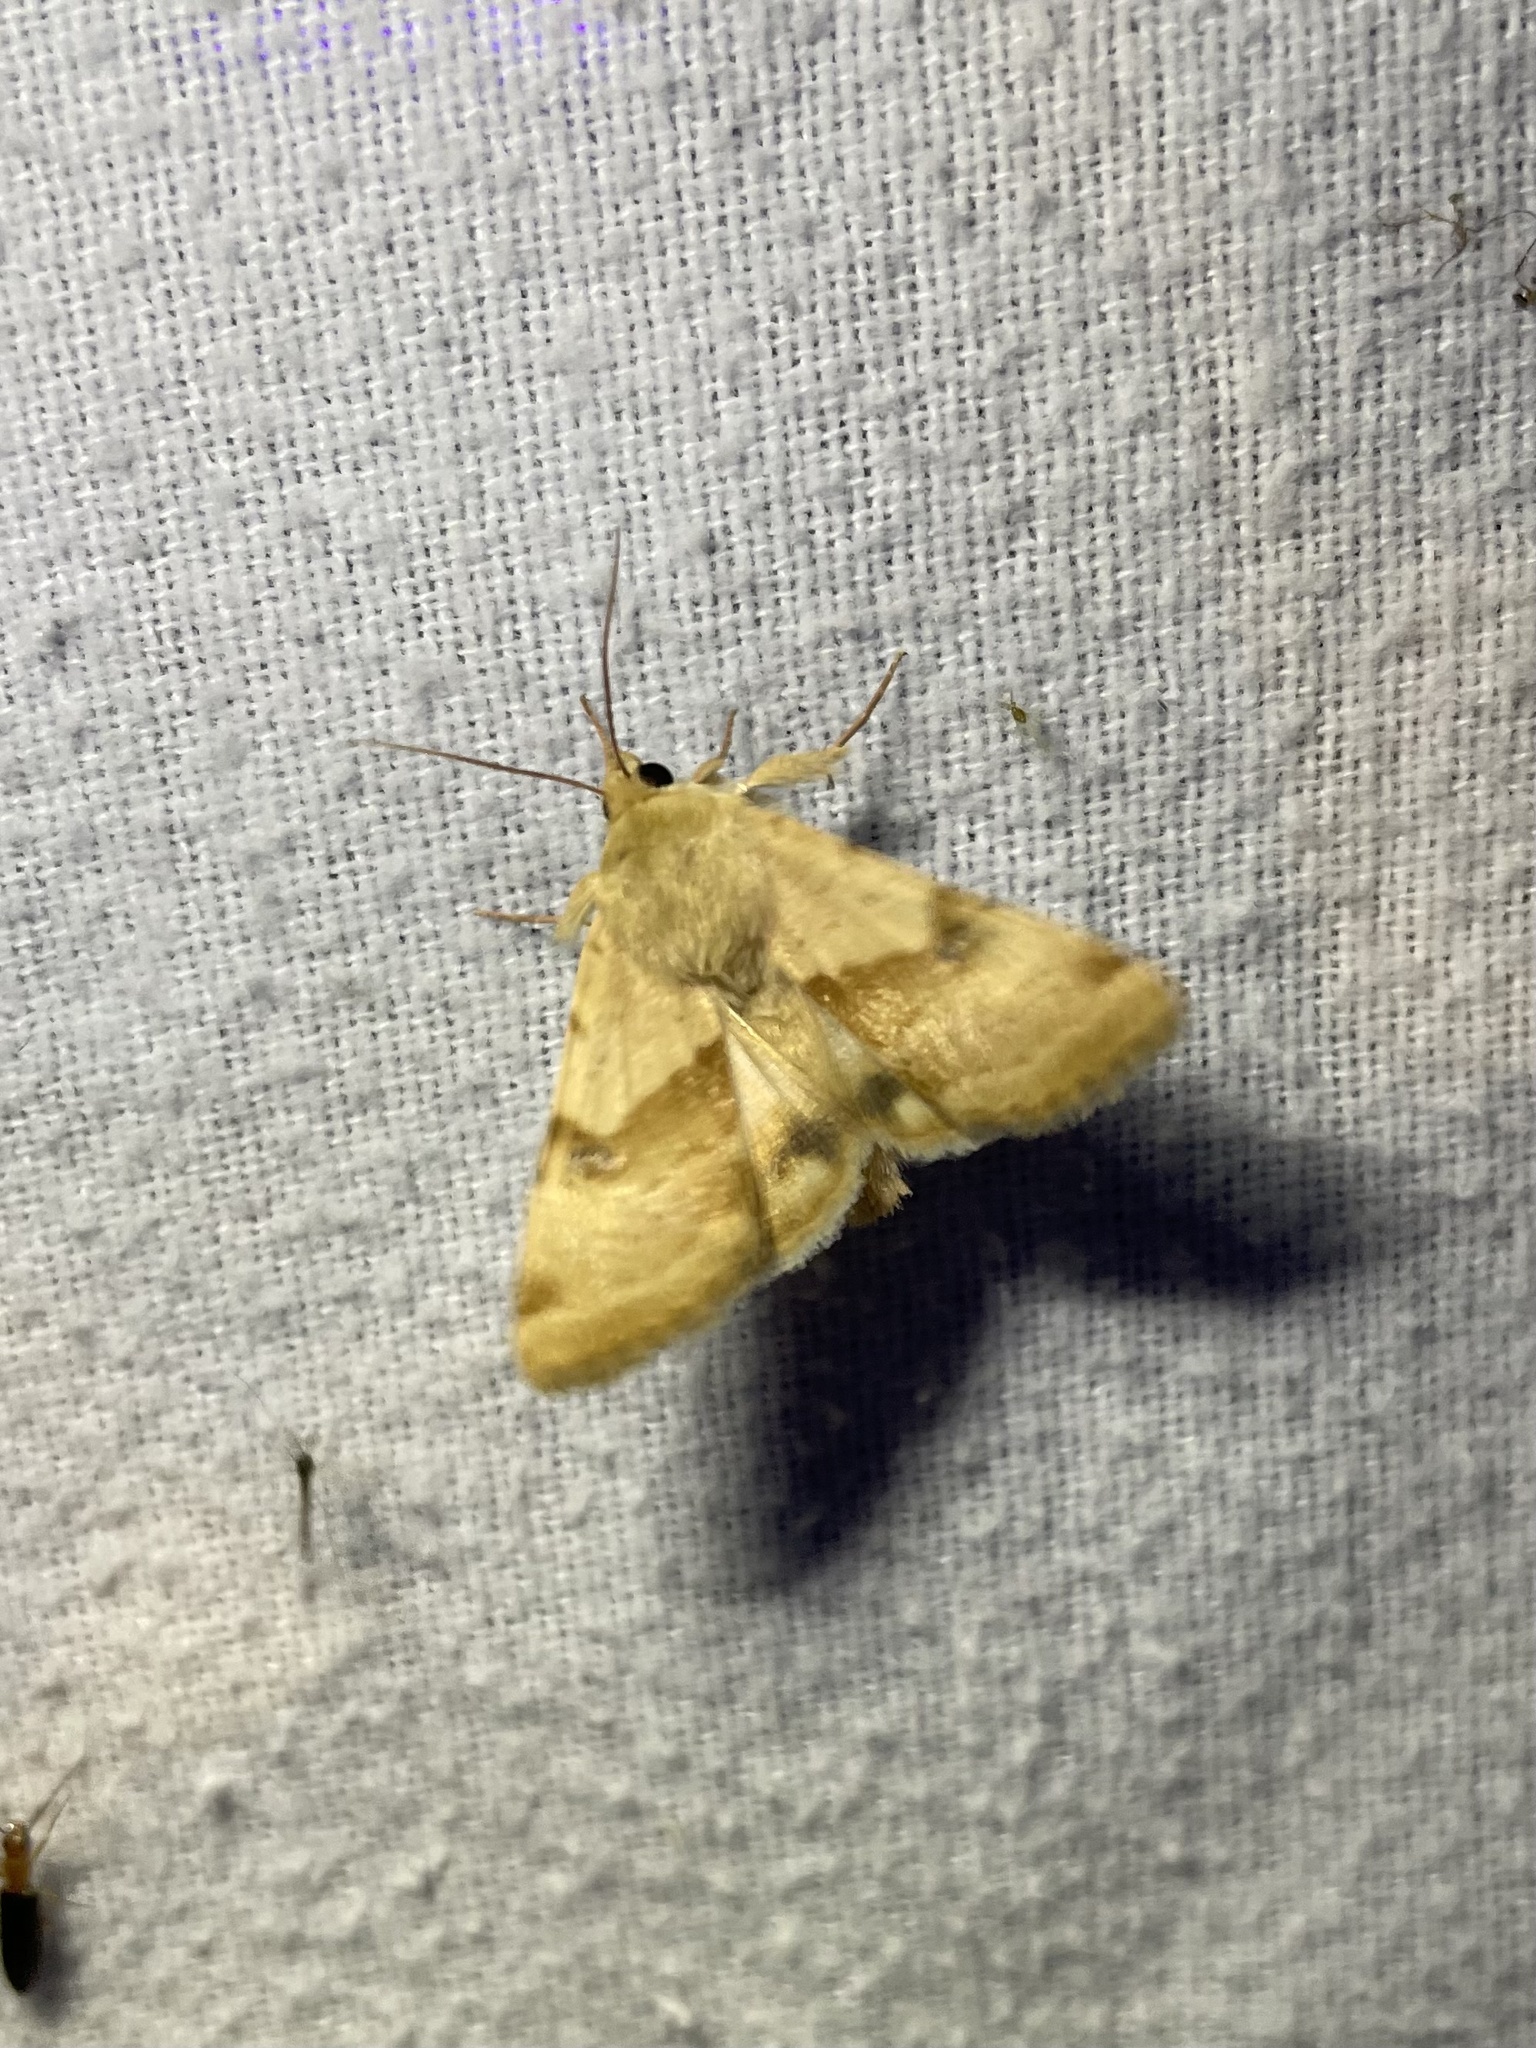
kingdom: Animalia
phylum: Arthropoda
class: Insecta
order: Lepidoptera
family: Noctuidae
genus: Heliothis
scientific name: Heliothis phloxiphaga
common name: Darker spotted straw moth
